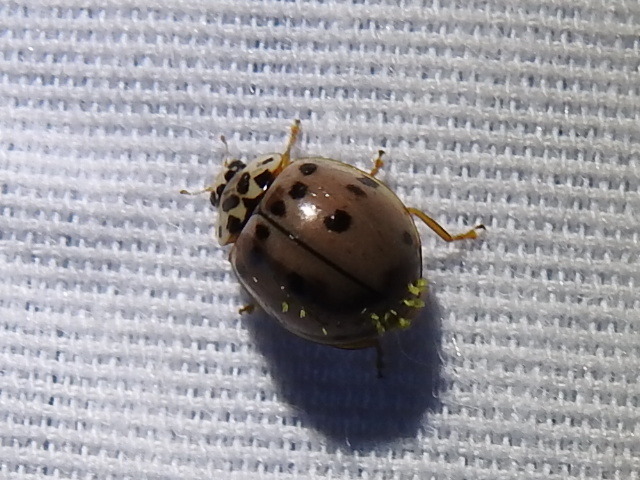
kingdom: Animalia
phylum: Arthropoda
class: Insecta
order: Coleoptera
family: Coccinellidae
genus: Olla
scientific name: Olla v-nigrum
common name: Ashy gray lady beetle
